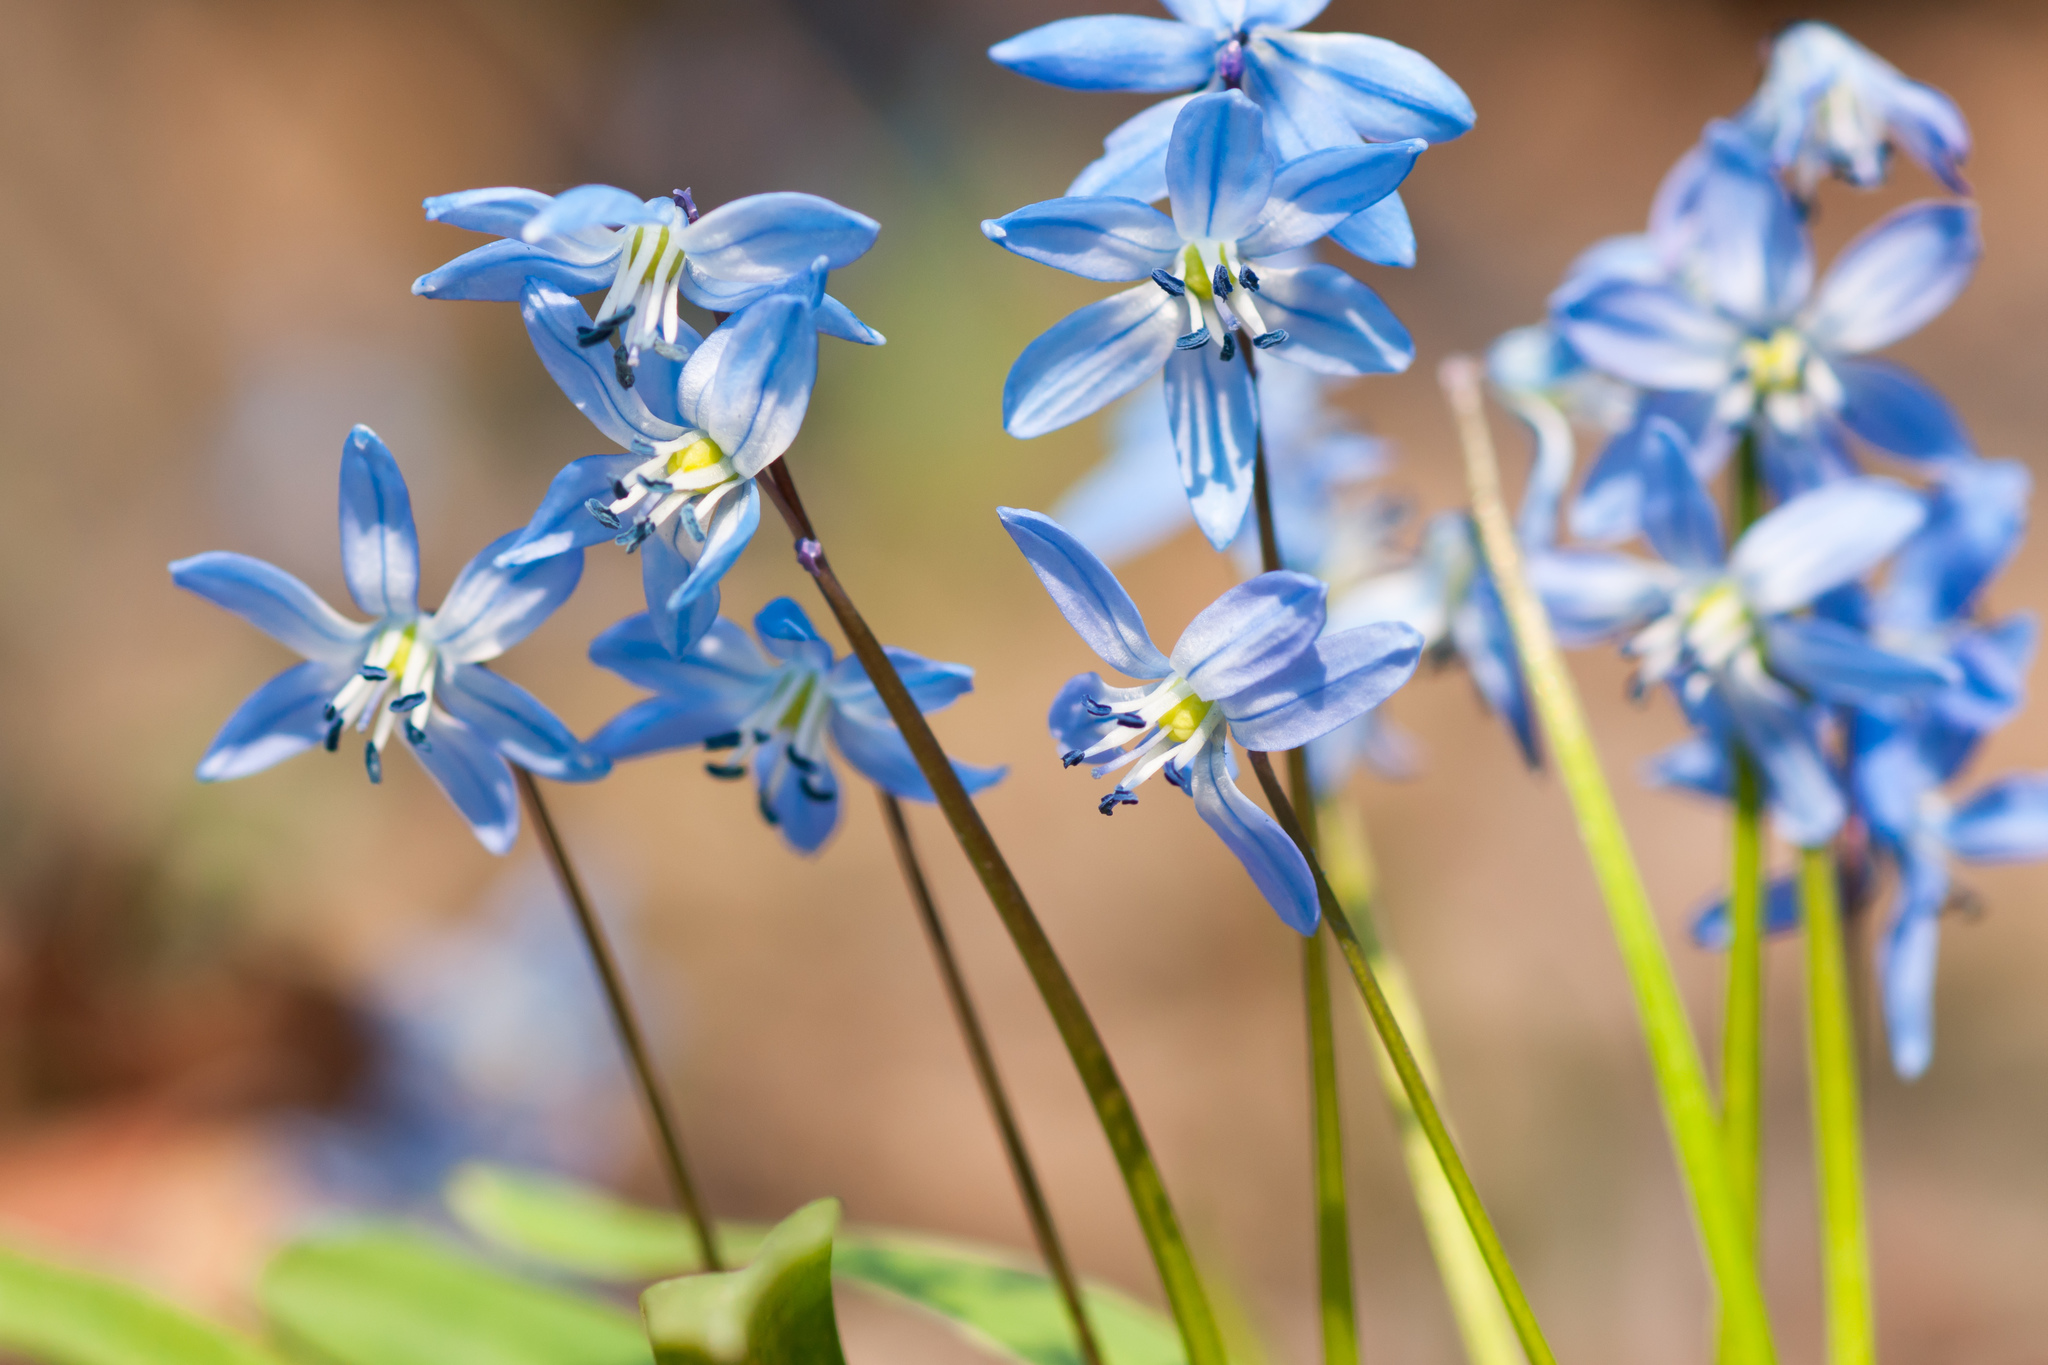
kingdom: Plantae
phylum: Tracheophyta
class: Liliopsida
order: Asparagales
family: Asparagaceae
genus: Scilla
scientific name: Scilla siberica
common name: Siberian squill
